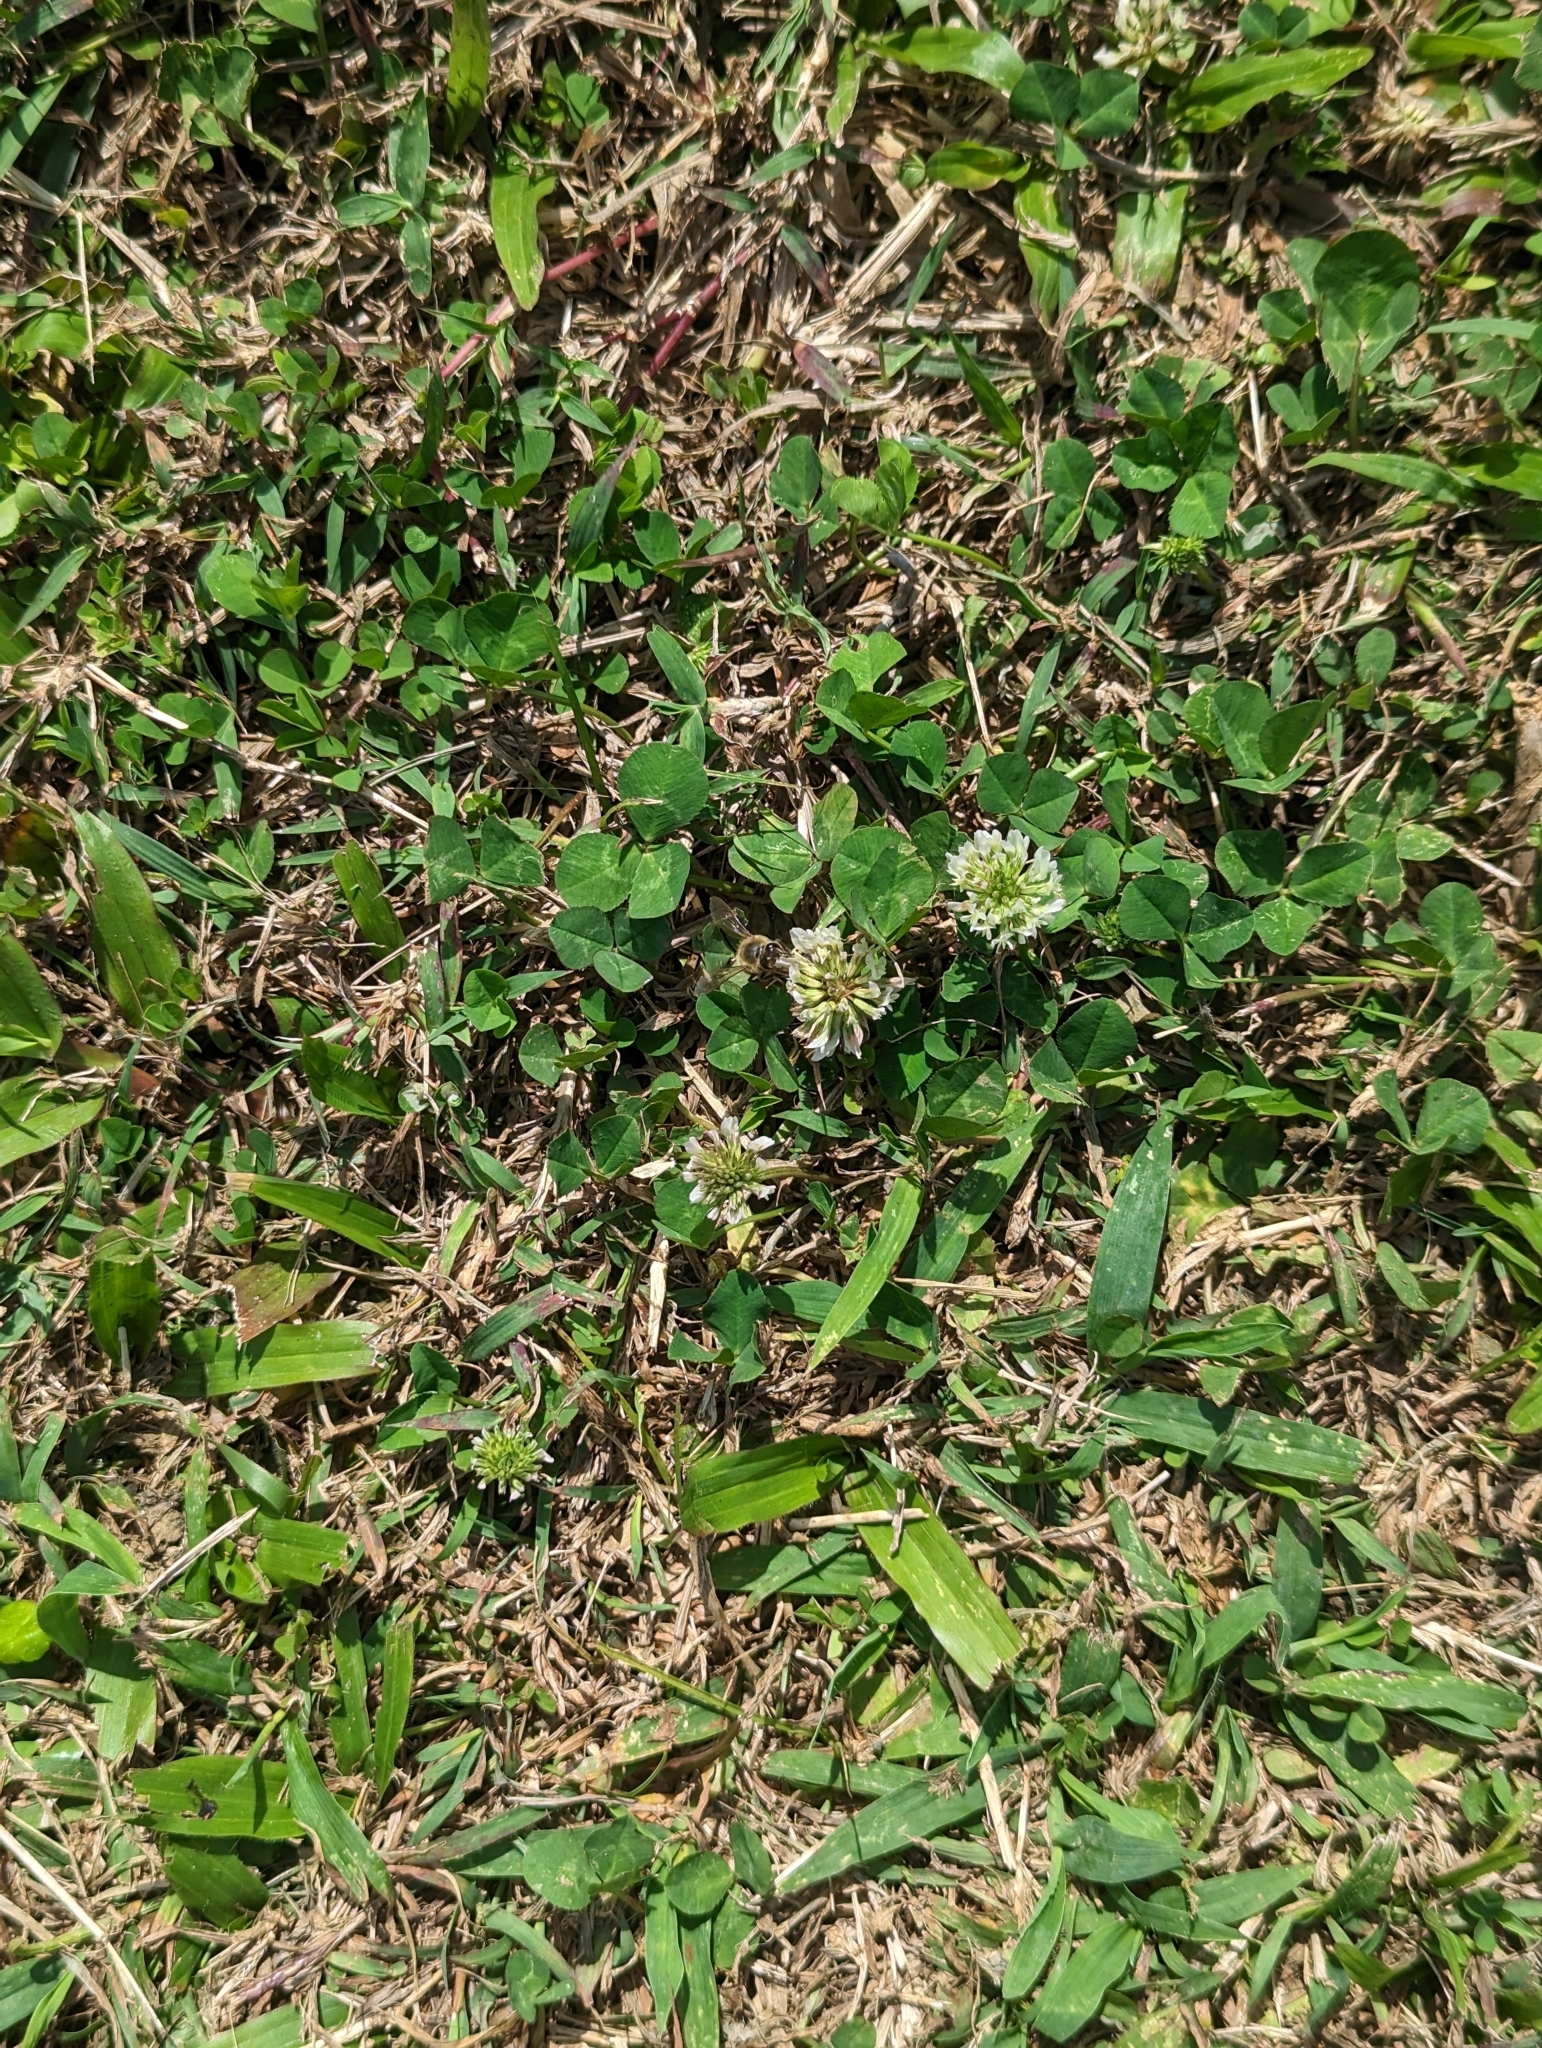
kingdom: Animalia
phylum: Arthropoda
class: Insecta
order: Hymenoptera
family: Apidae
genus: Apis
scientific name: Apis mellifera
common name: Honey bee
